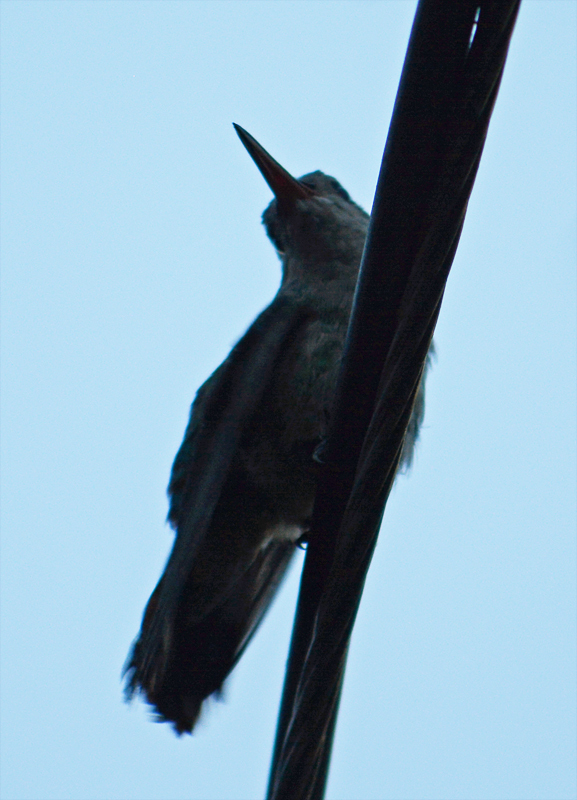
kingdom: Animalia
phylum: Chordata
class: Aves
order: Apodiformes
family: Trochilidae
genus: Cynanthus
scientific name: Cynanthus latirostris
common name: Broad-billed hummingbird
